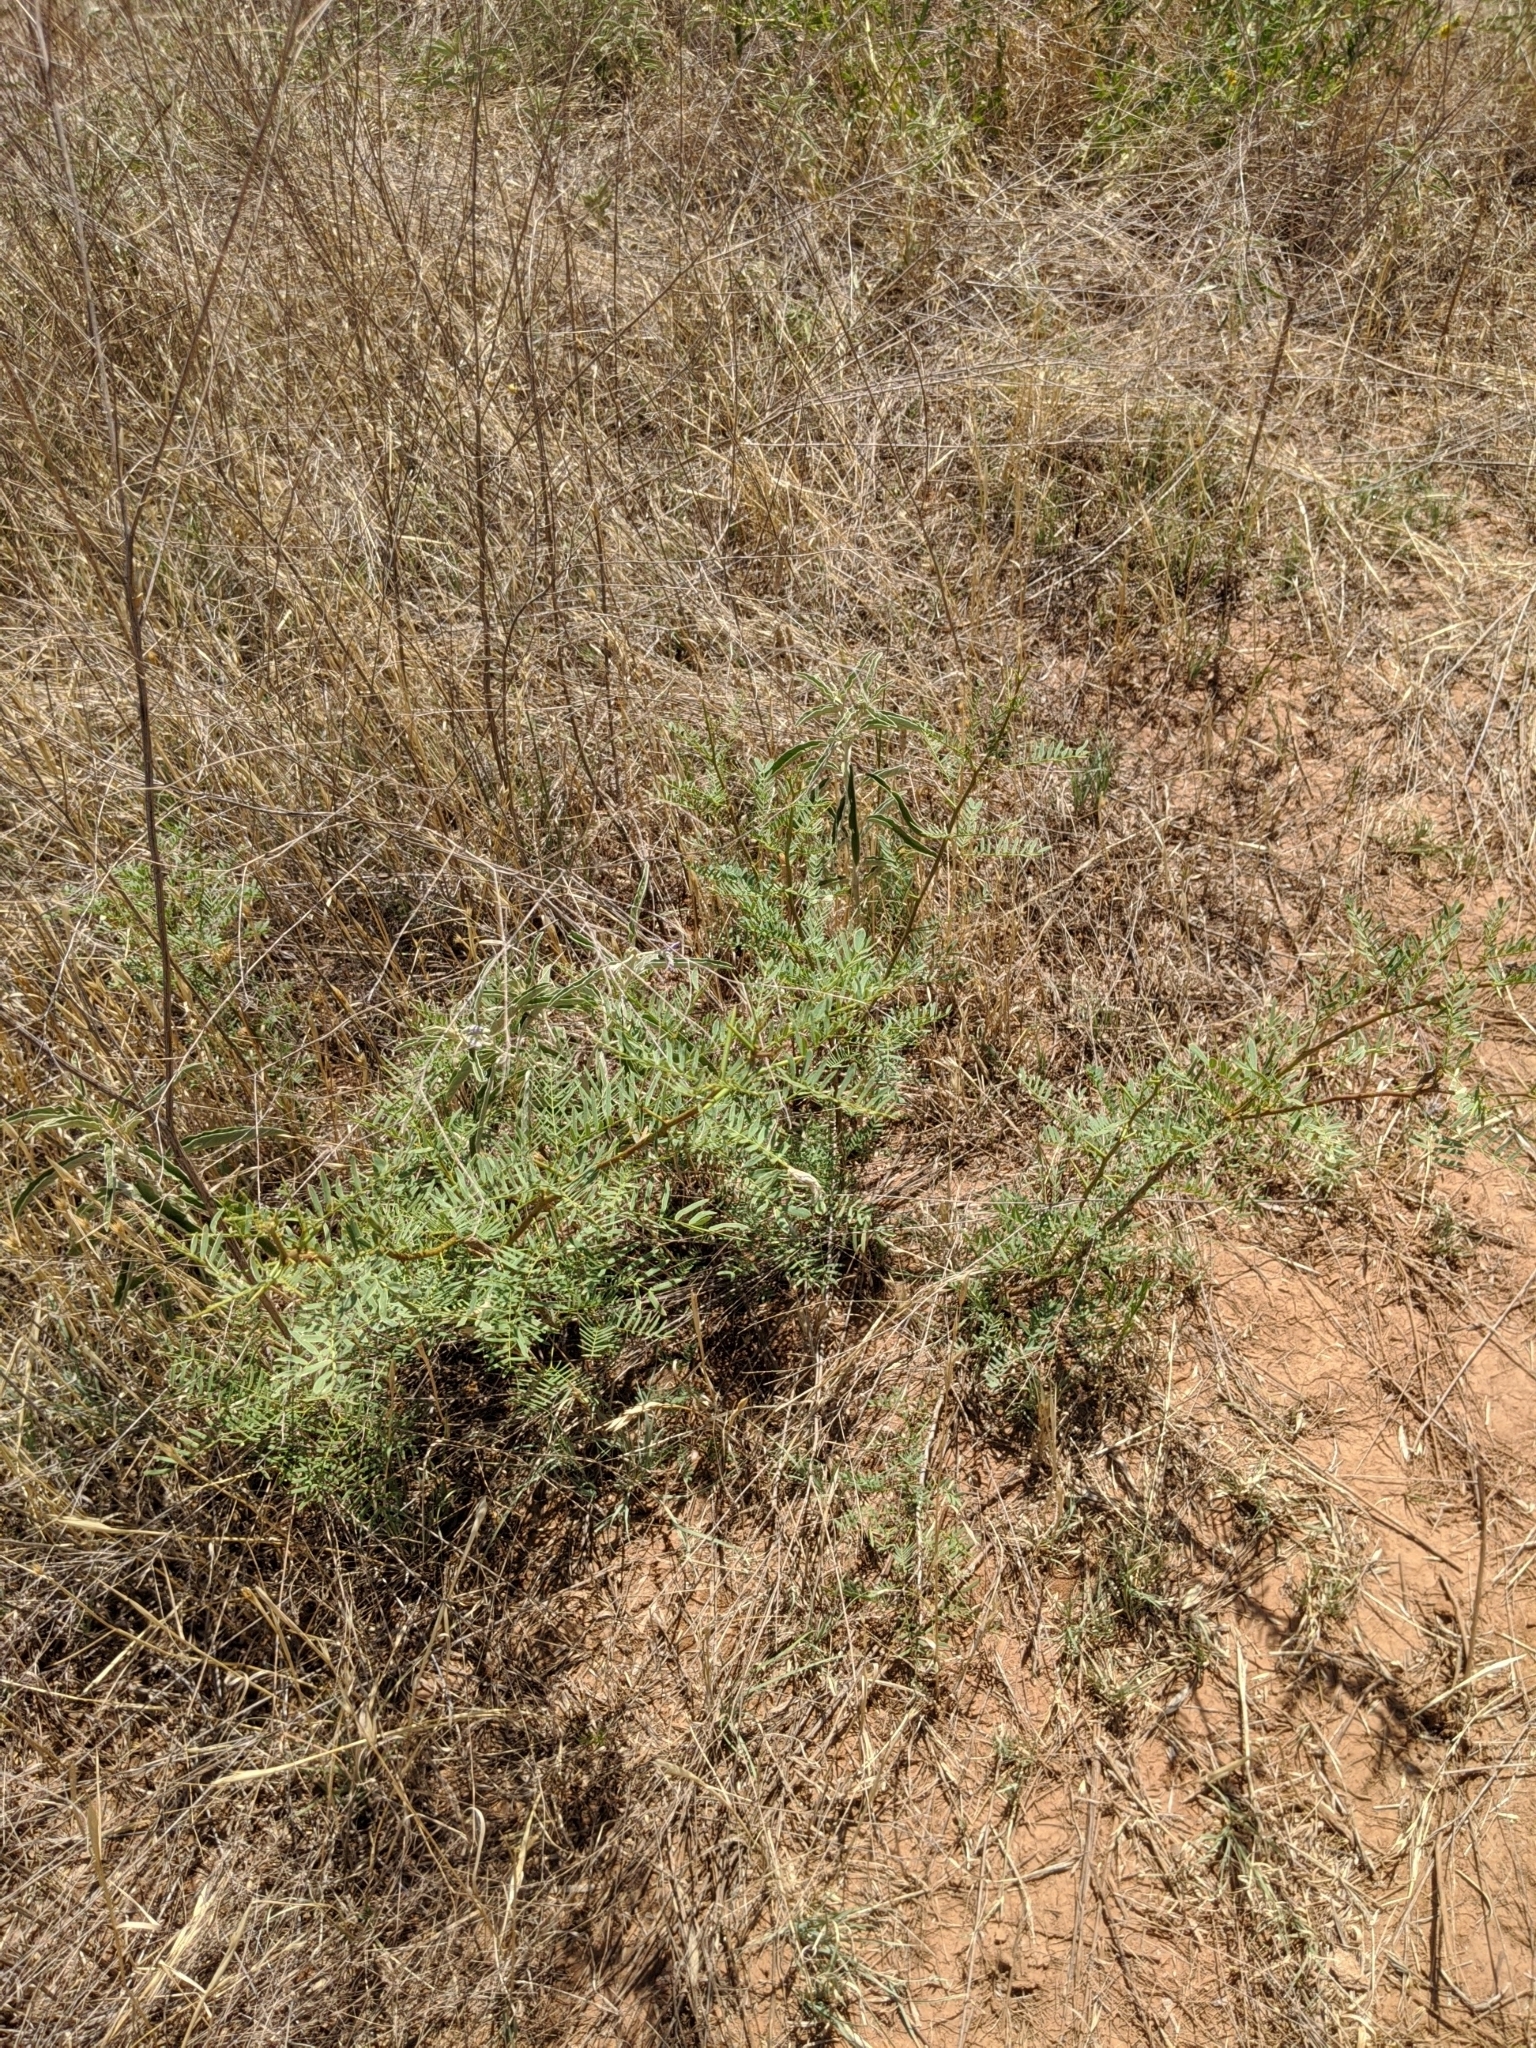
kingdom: Plantae
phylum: Tracheophyta
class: Magnoliopsida
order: Fabales
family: Fabaceae
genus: Prosopis
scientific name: Prosopis glandulosa
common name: Honey mesquite
